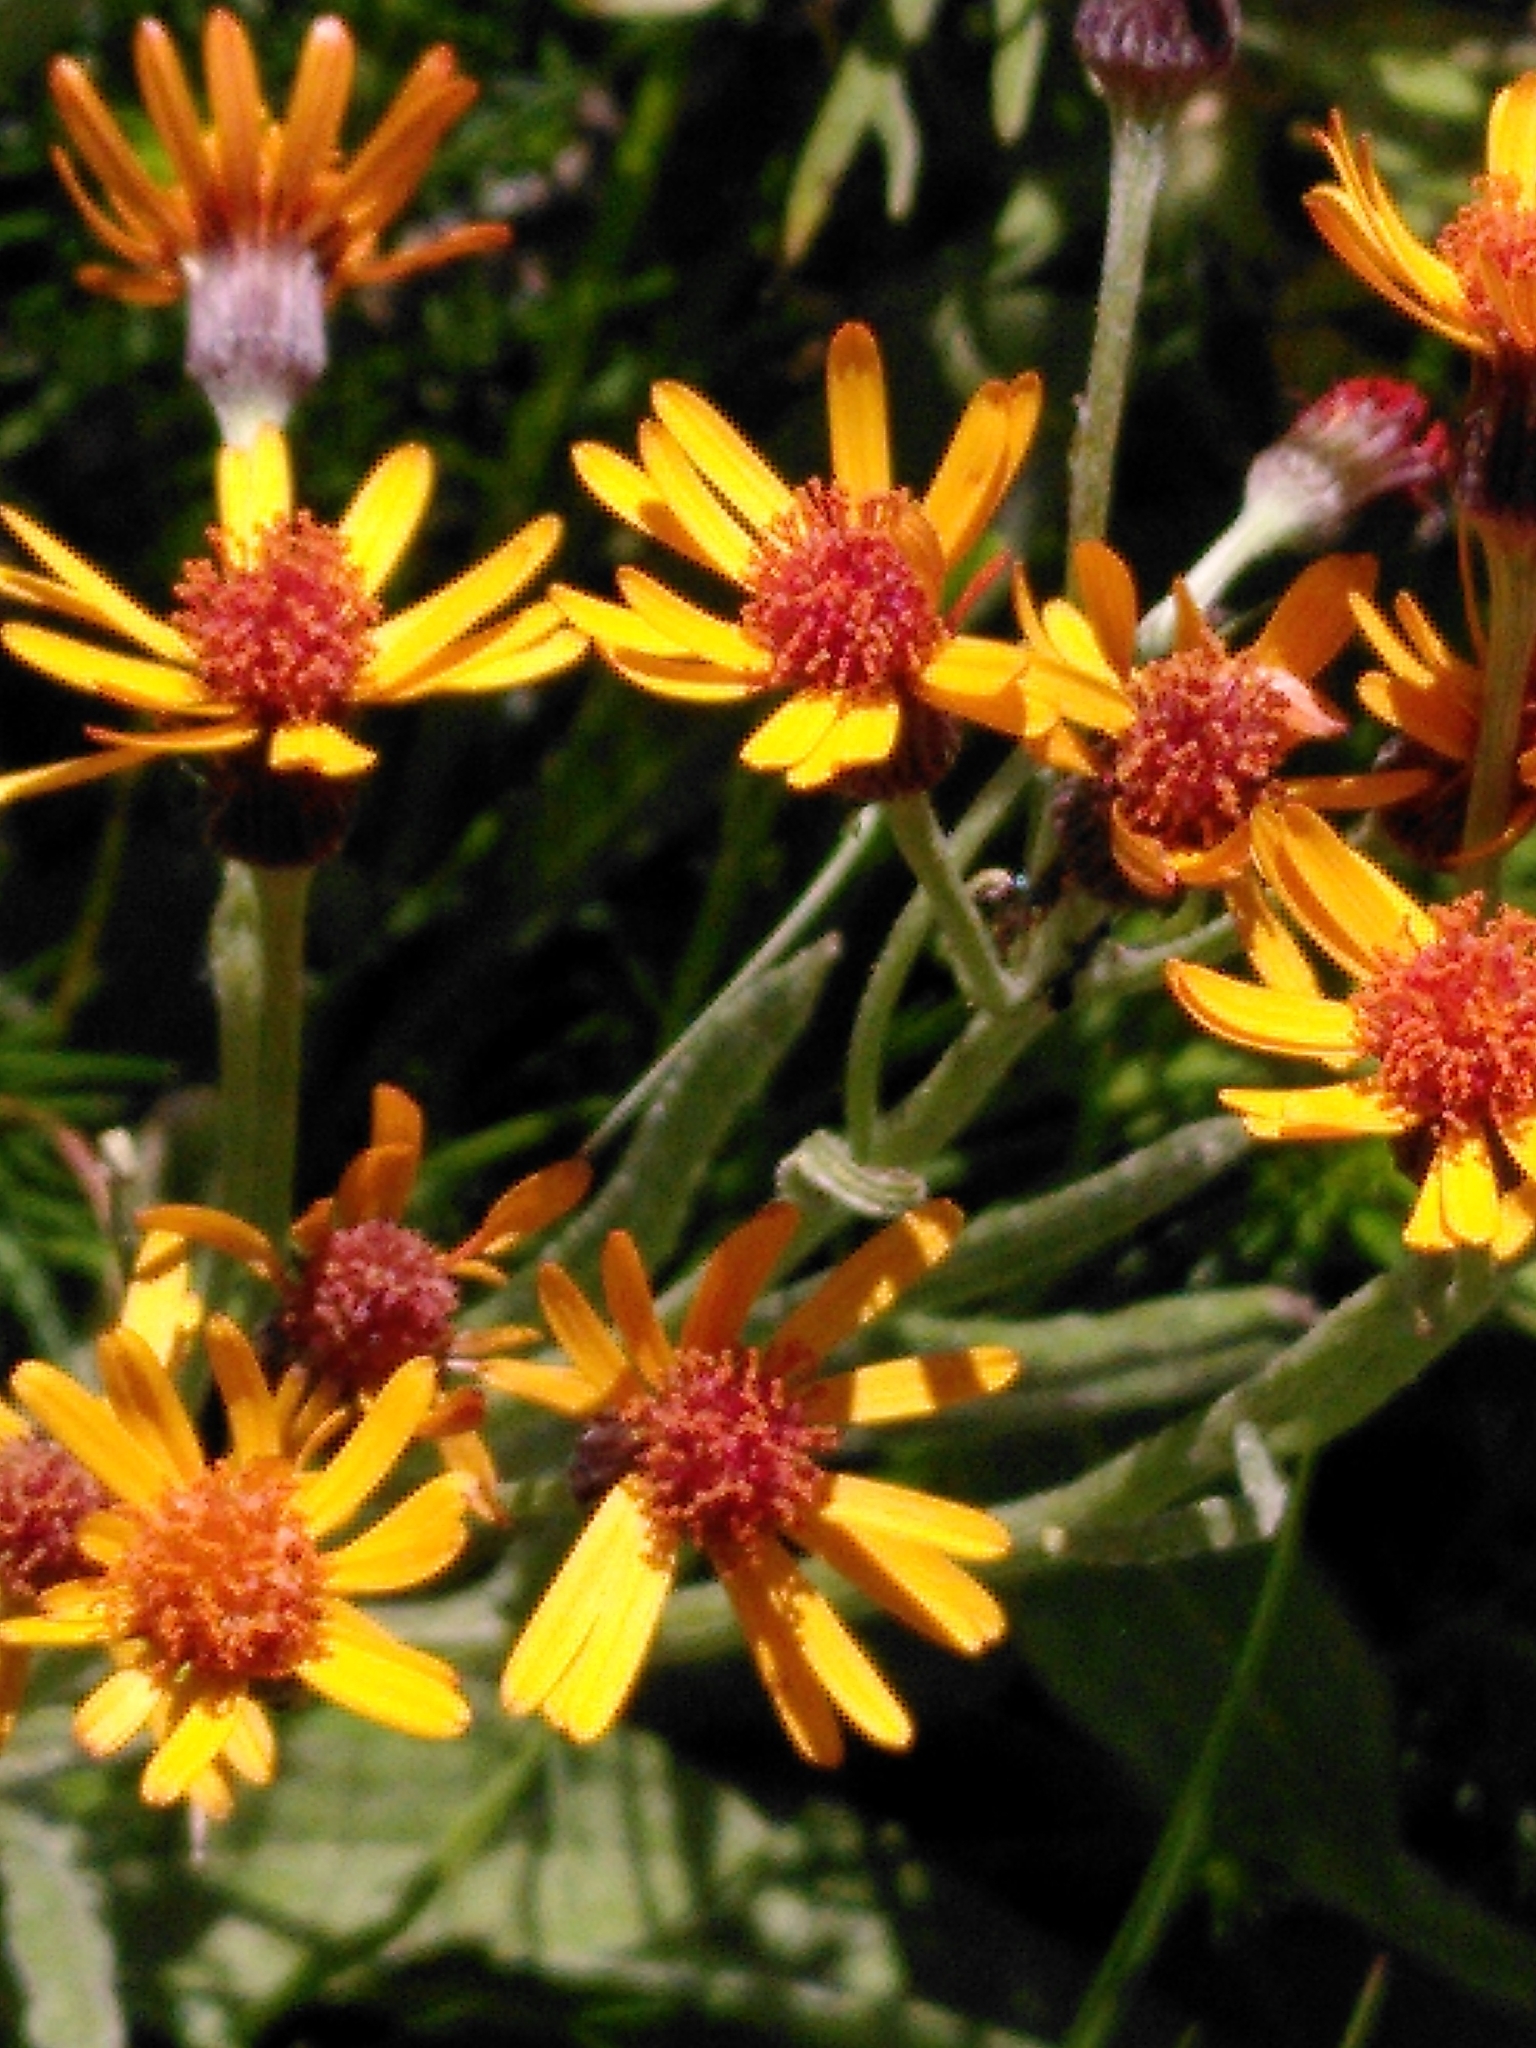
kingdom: Plantae
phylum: Tracheophyta
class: Magnoliopsida
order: Asterales
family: Asteraceae
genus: Tephroseris
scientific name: Tephroseris integrifolia
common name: Field fleawort
